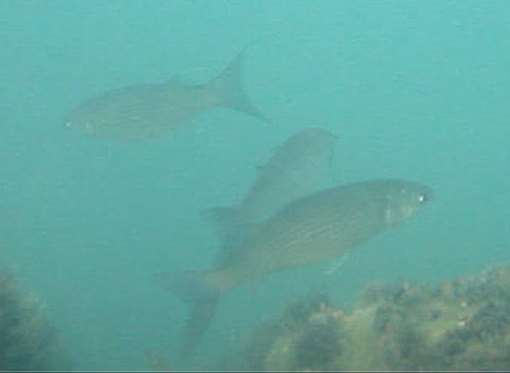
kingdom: Animalia
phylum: Chordata
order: Mugiliformes
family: Mugilidae
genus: Chelon
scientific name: Chelon
